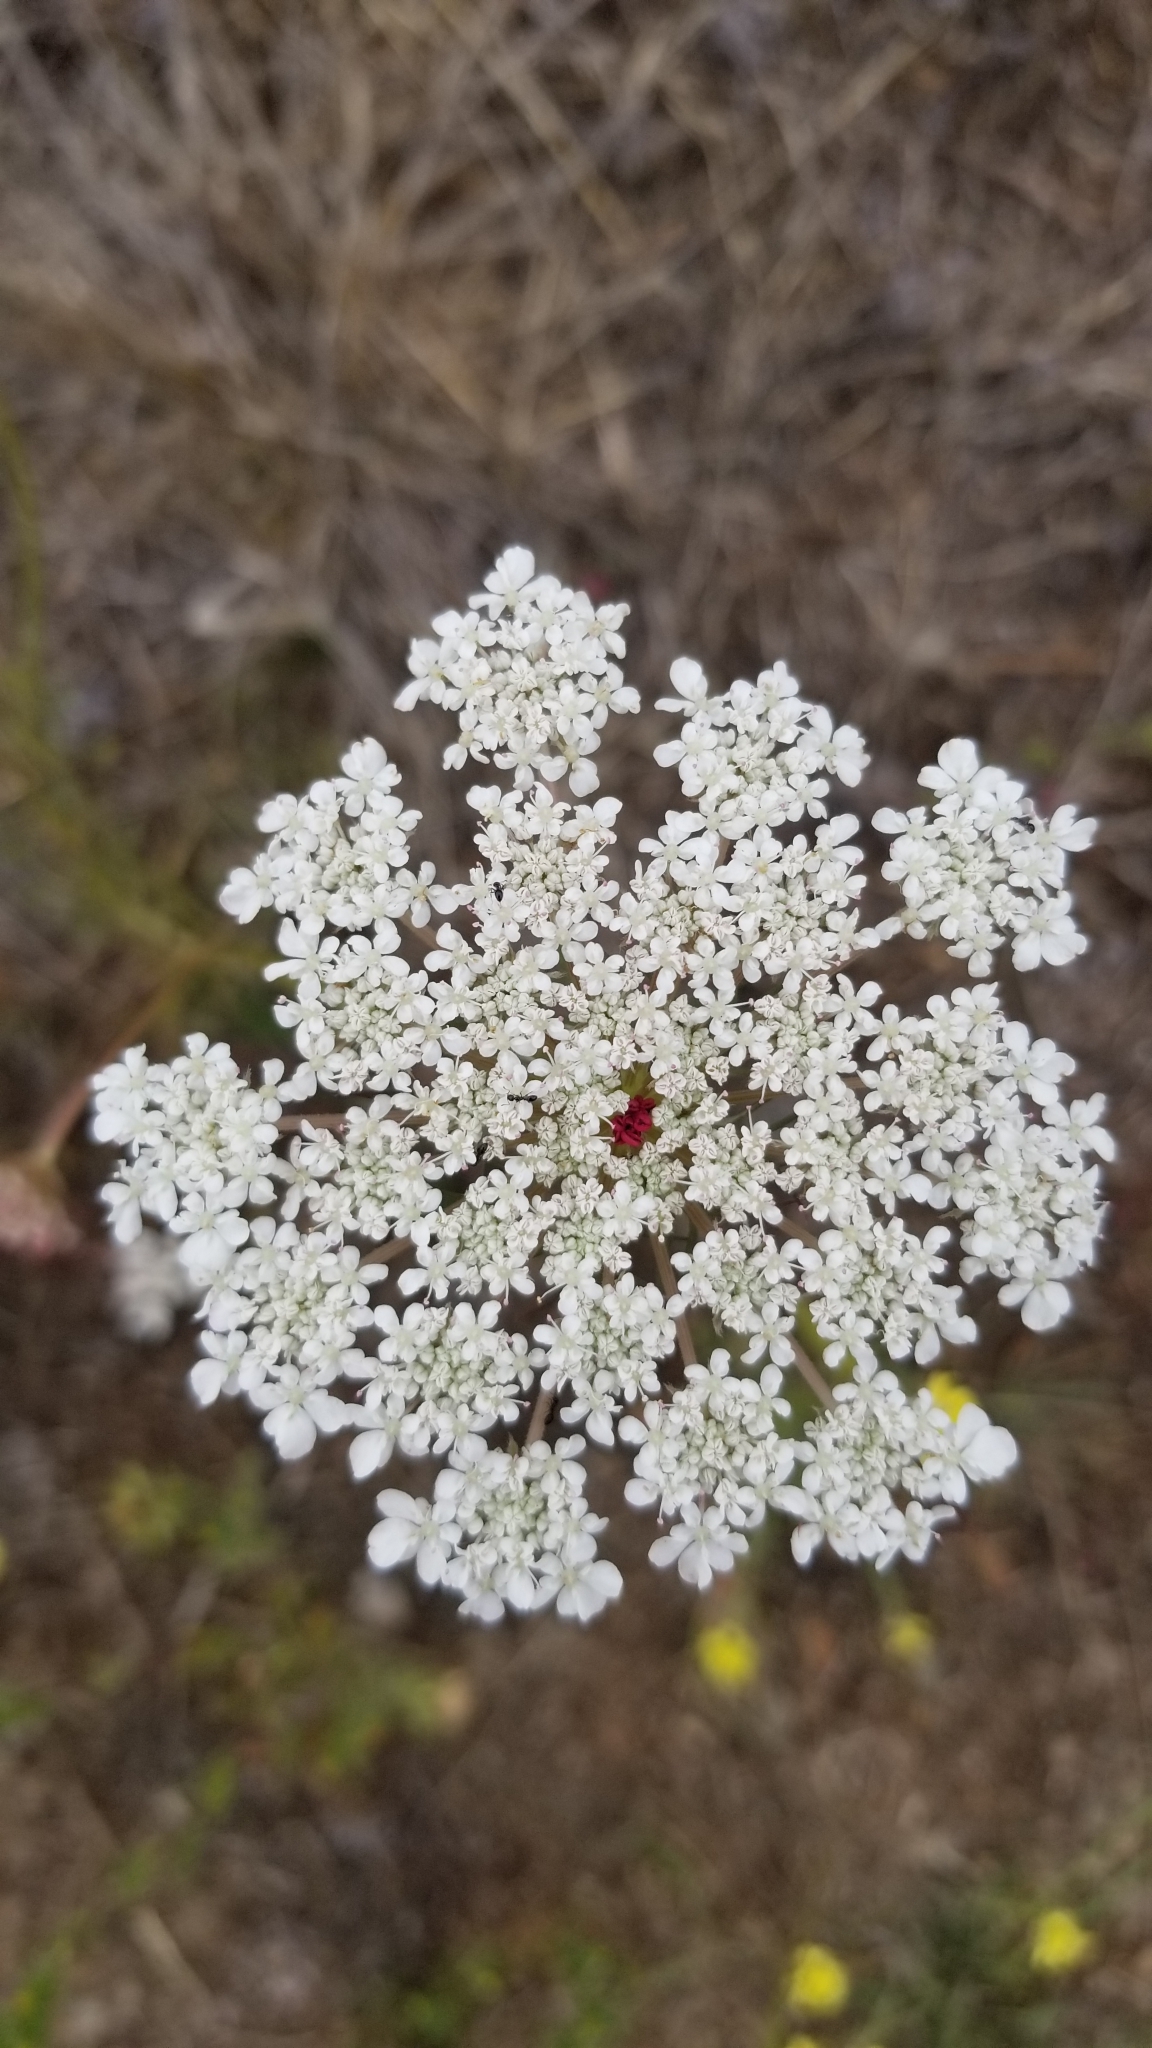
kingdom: Plantae
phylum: Tracheophyta
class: Magnoliopsida
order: Apiales
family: Apiaceae
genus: Daucus
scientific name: Daucus carota
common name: Wild carrot
